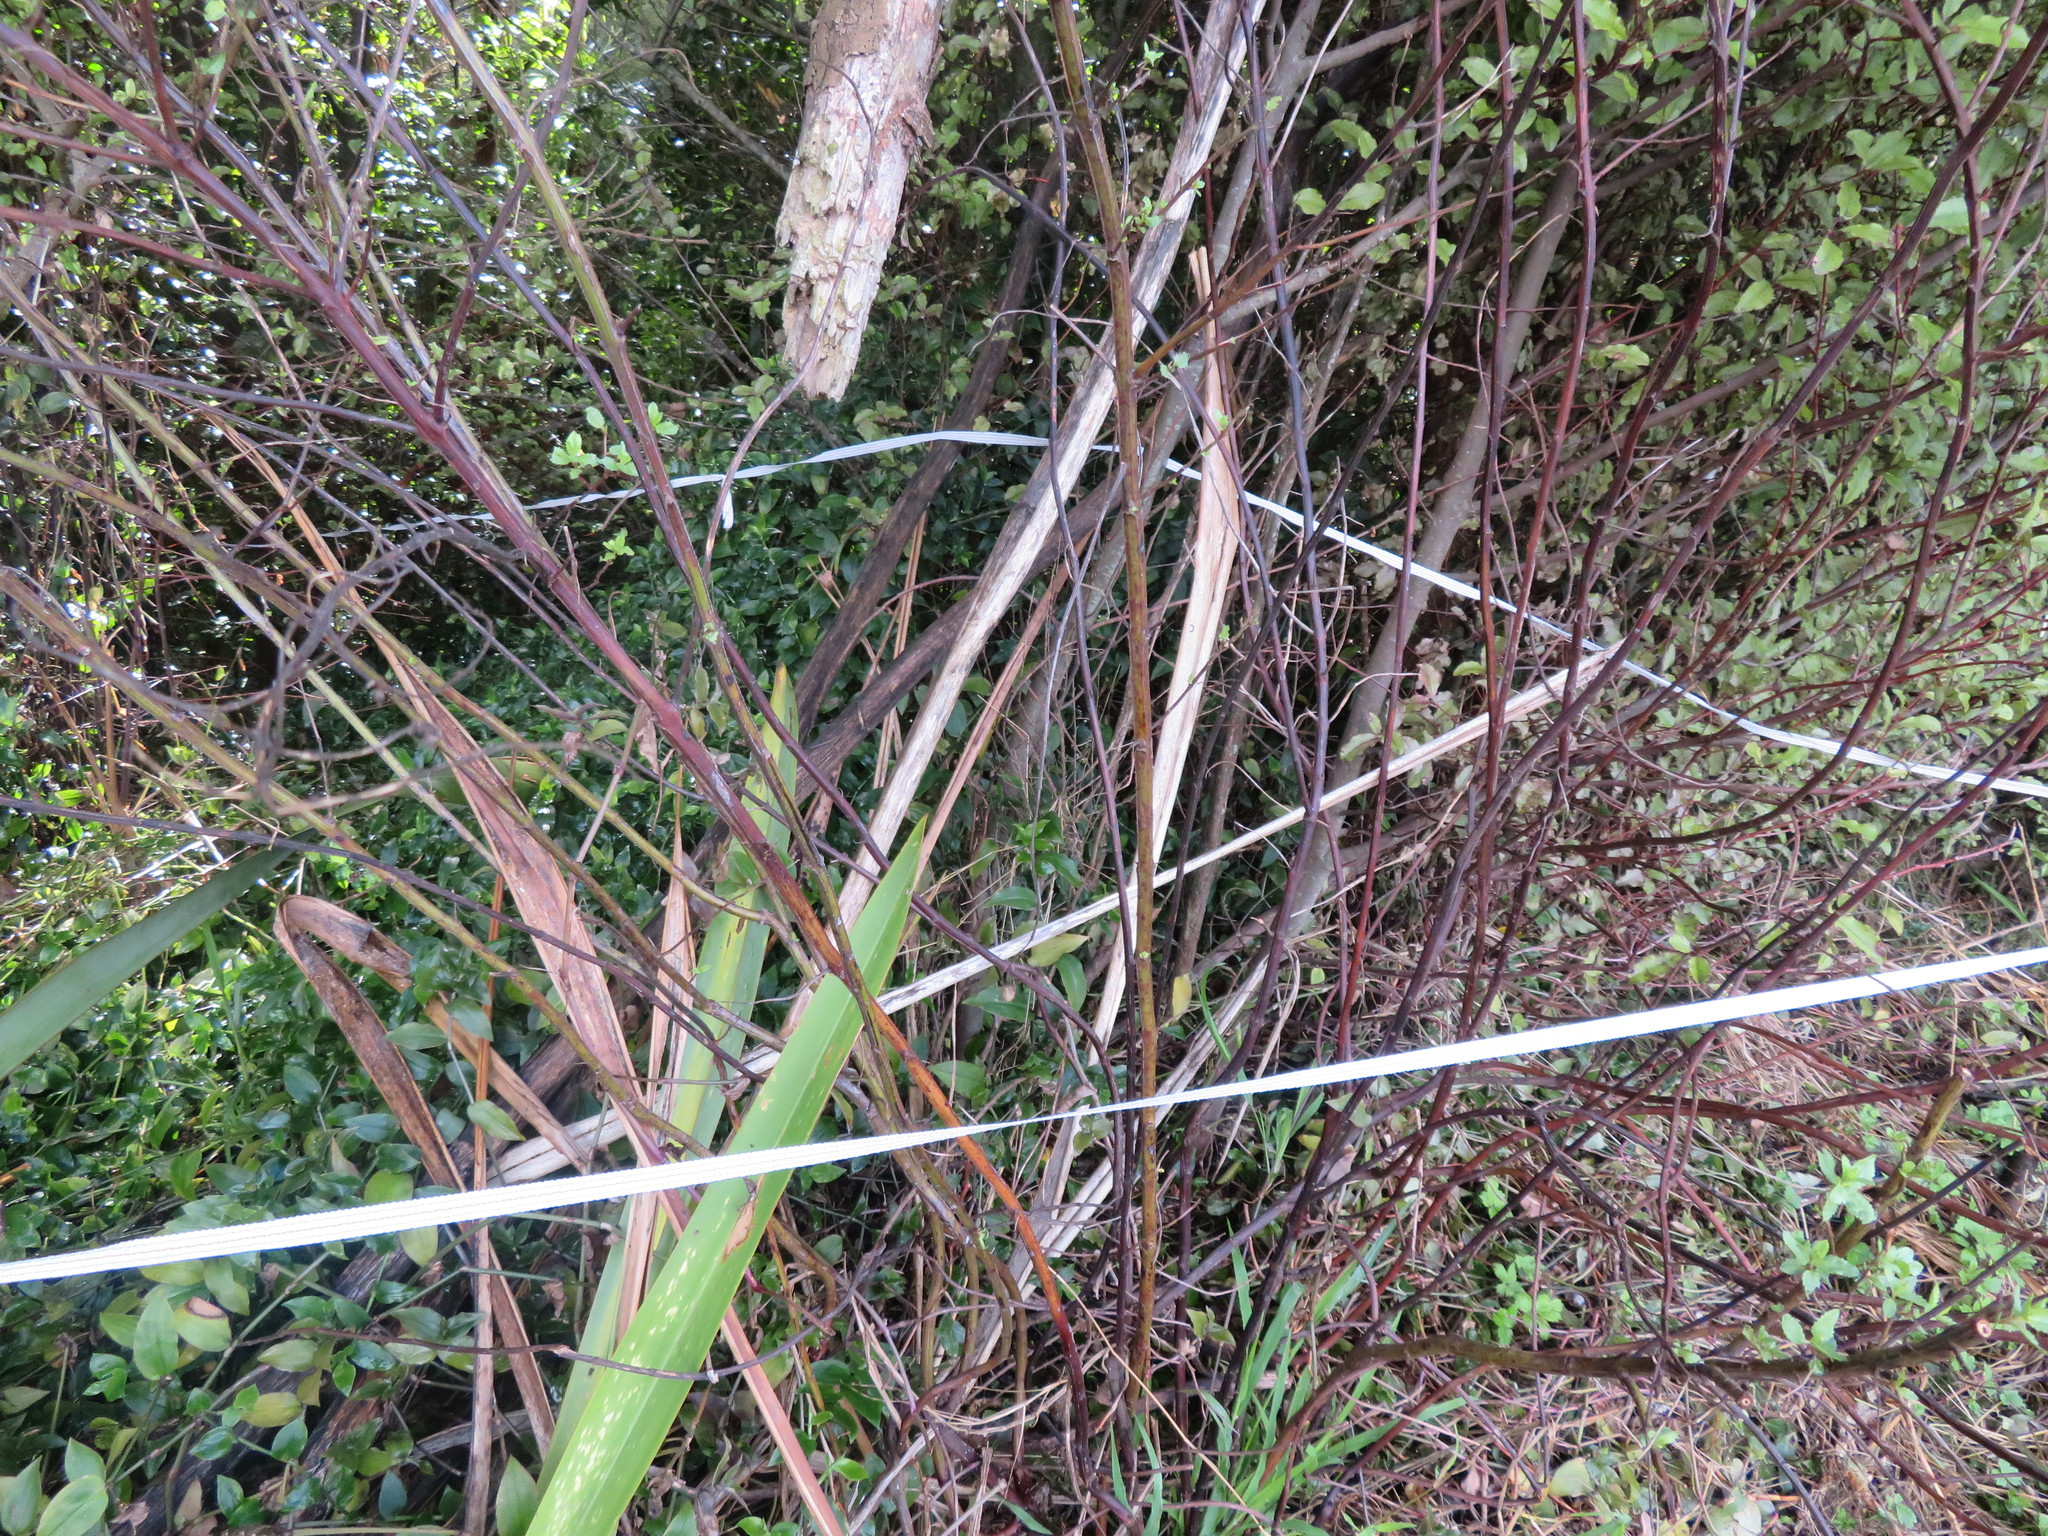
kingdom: Plantae
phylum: Tracheophyta
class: Liliopsida
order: Commelinales
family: Commelinaceae
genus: Tradescantia
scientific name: Tradescantia fluminensis
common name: Wandering-jew
